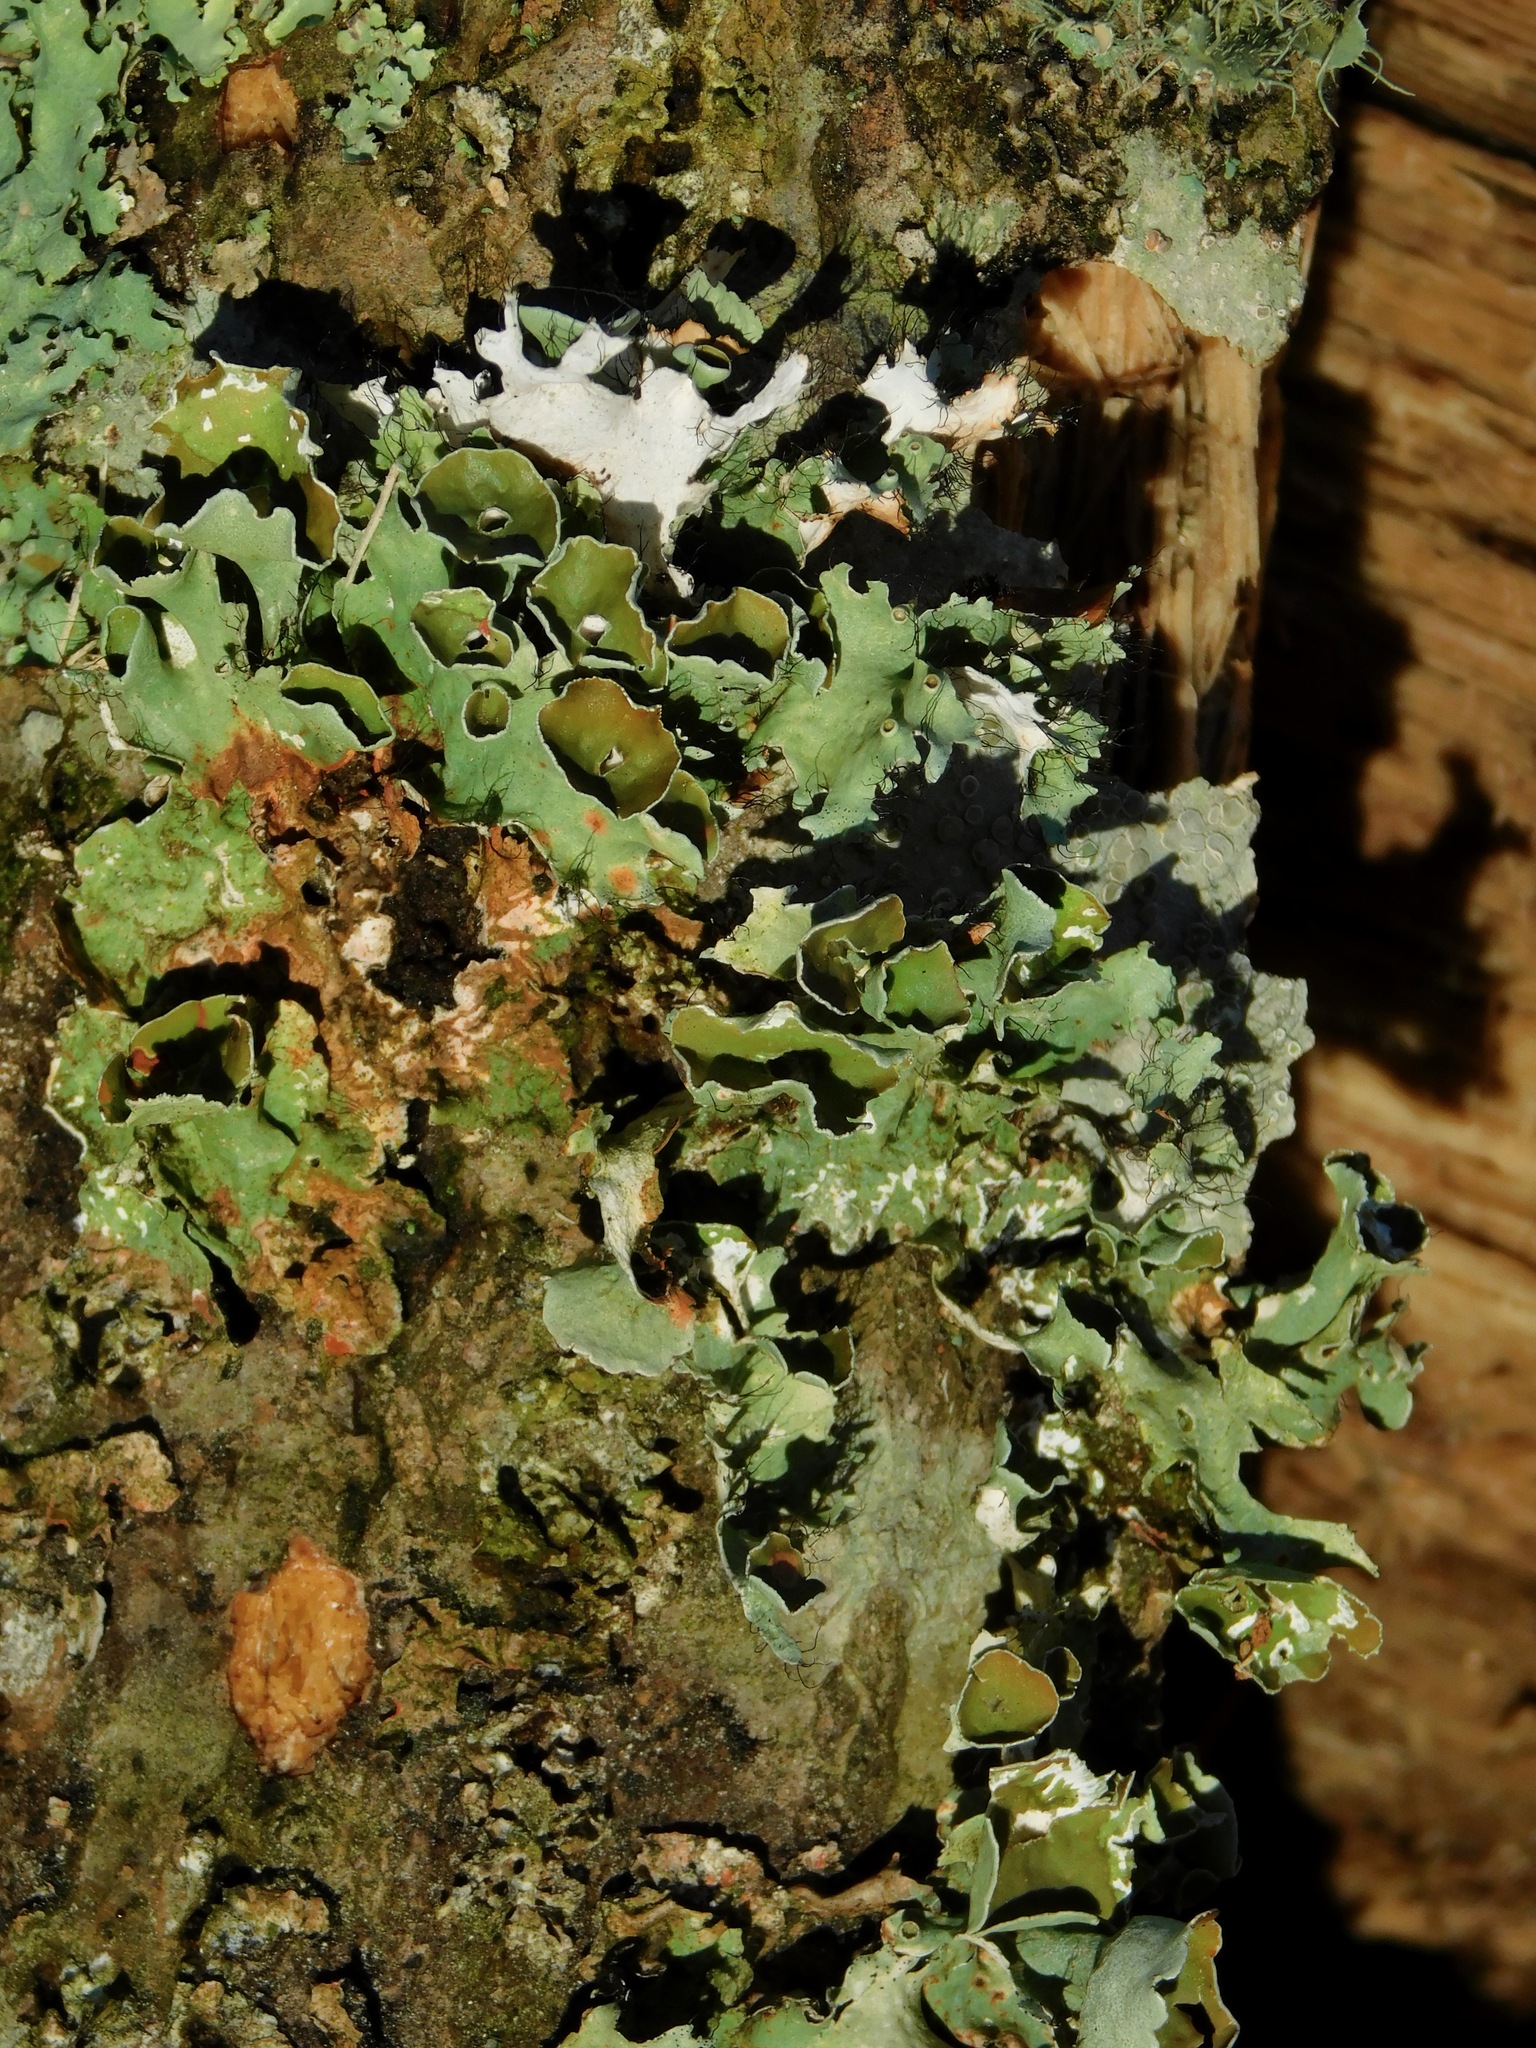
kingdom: Fungi
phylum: Ascomycota
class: Lecanoromycetes
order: Lecanorales
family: Parmeliaceae
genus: Parmotrema
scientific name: Parmotrema subrigidum
